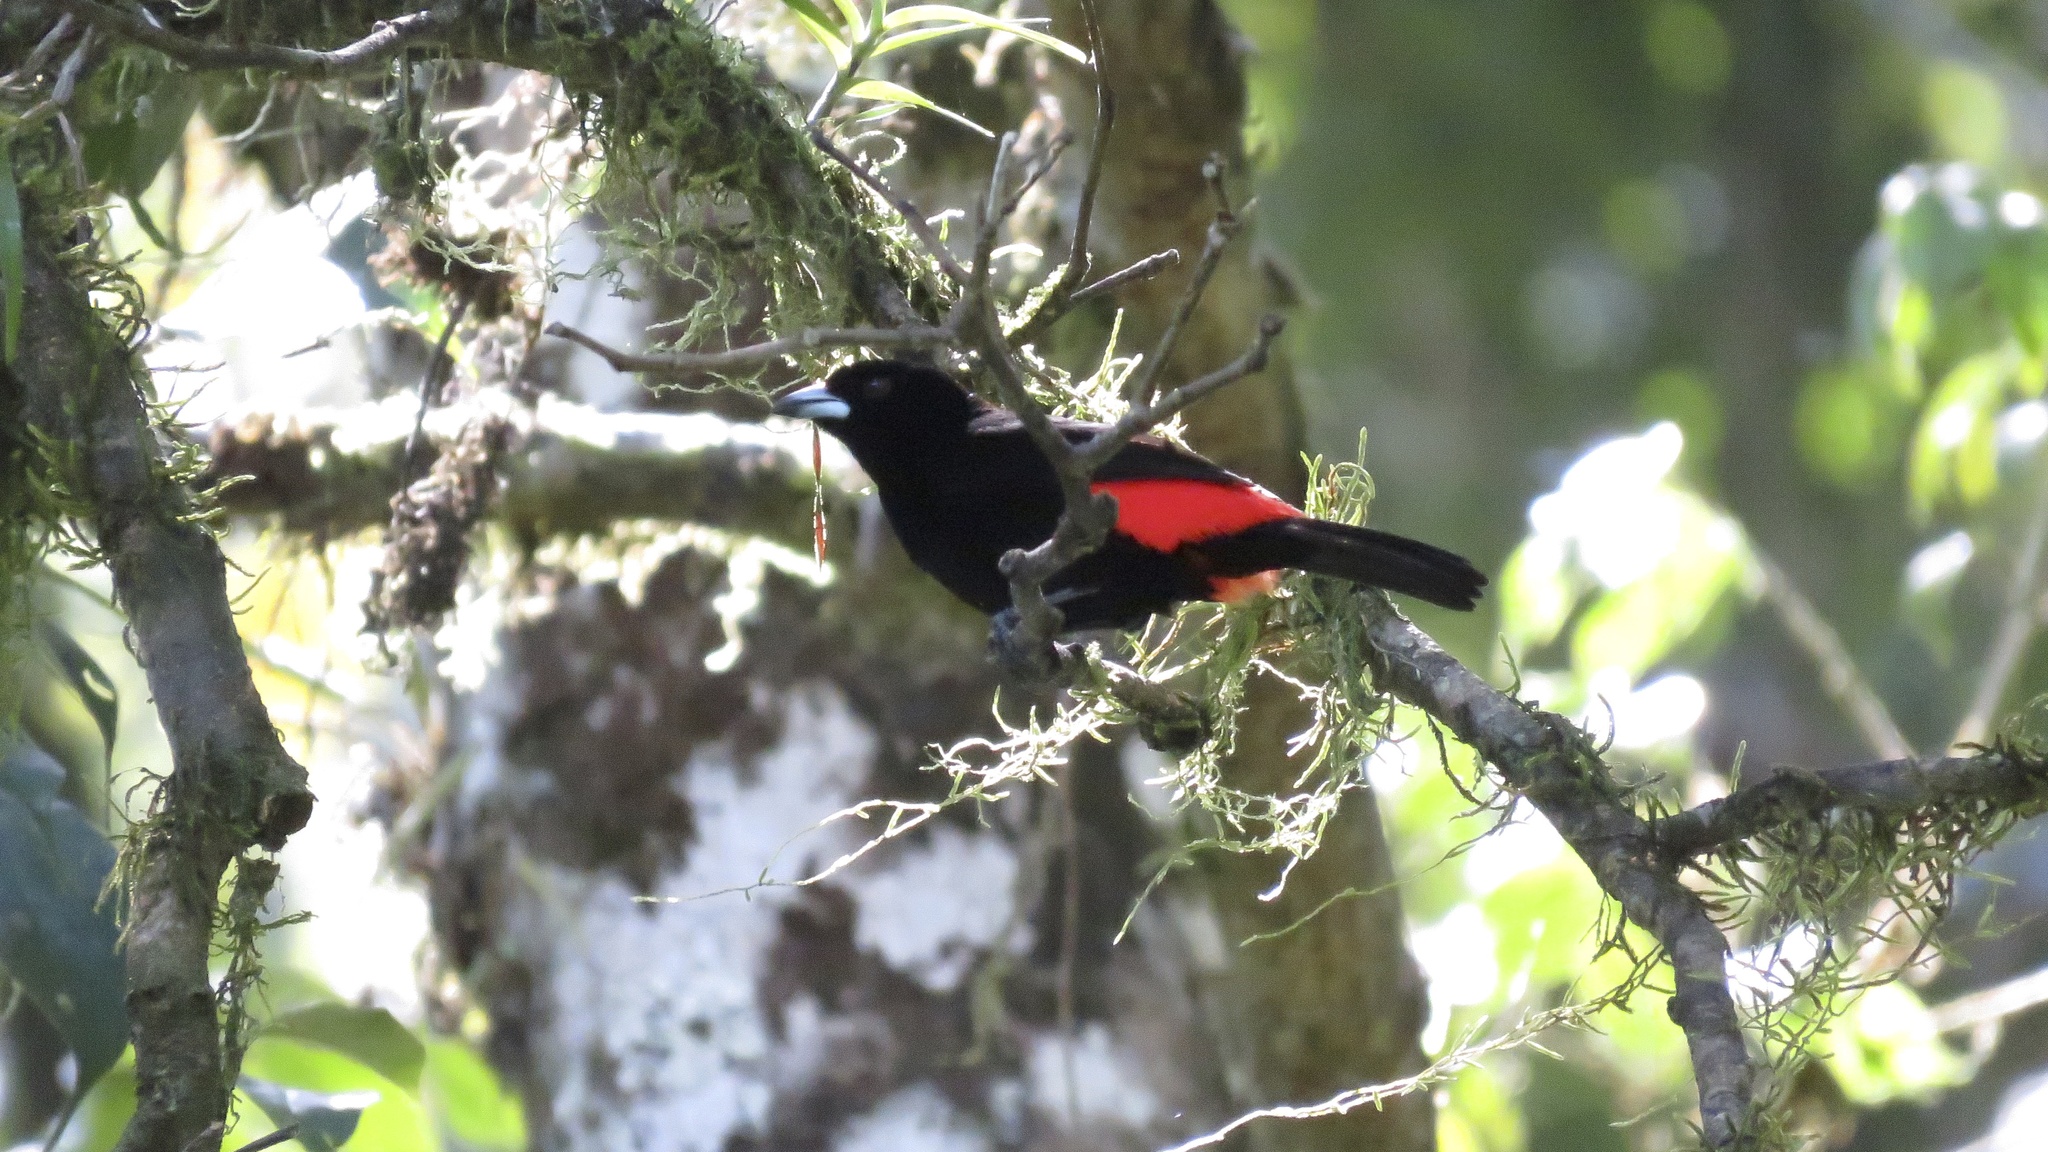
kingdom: Animalia
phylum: Chordata
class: Aves
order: Passeriformes
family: Thraupidae
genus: Ramphocelus
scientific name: Ramphocelus passerinii
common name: Passerini's tanager
